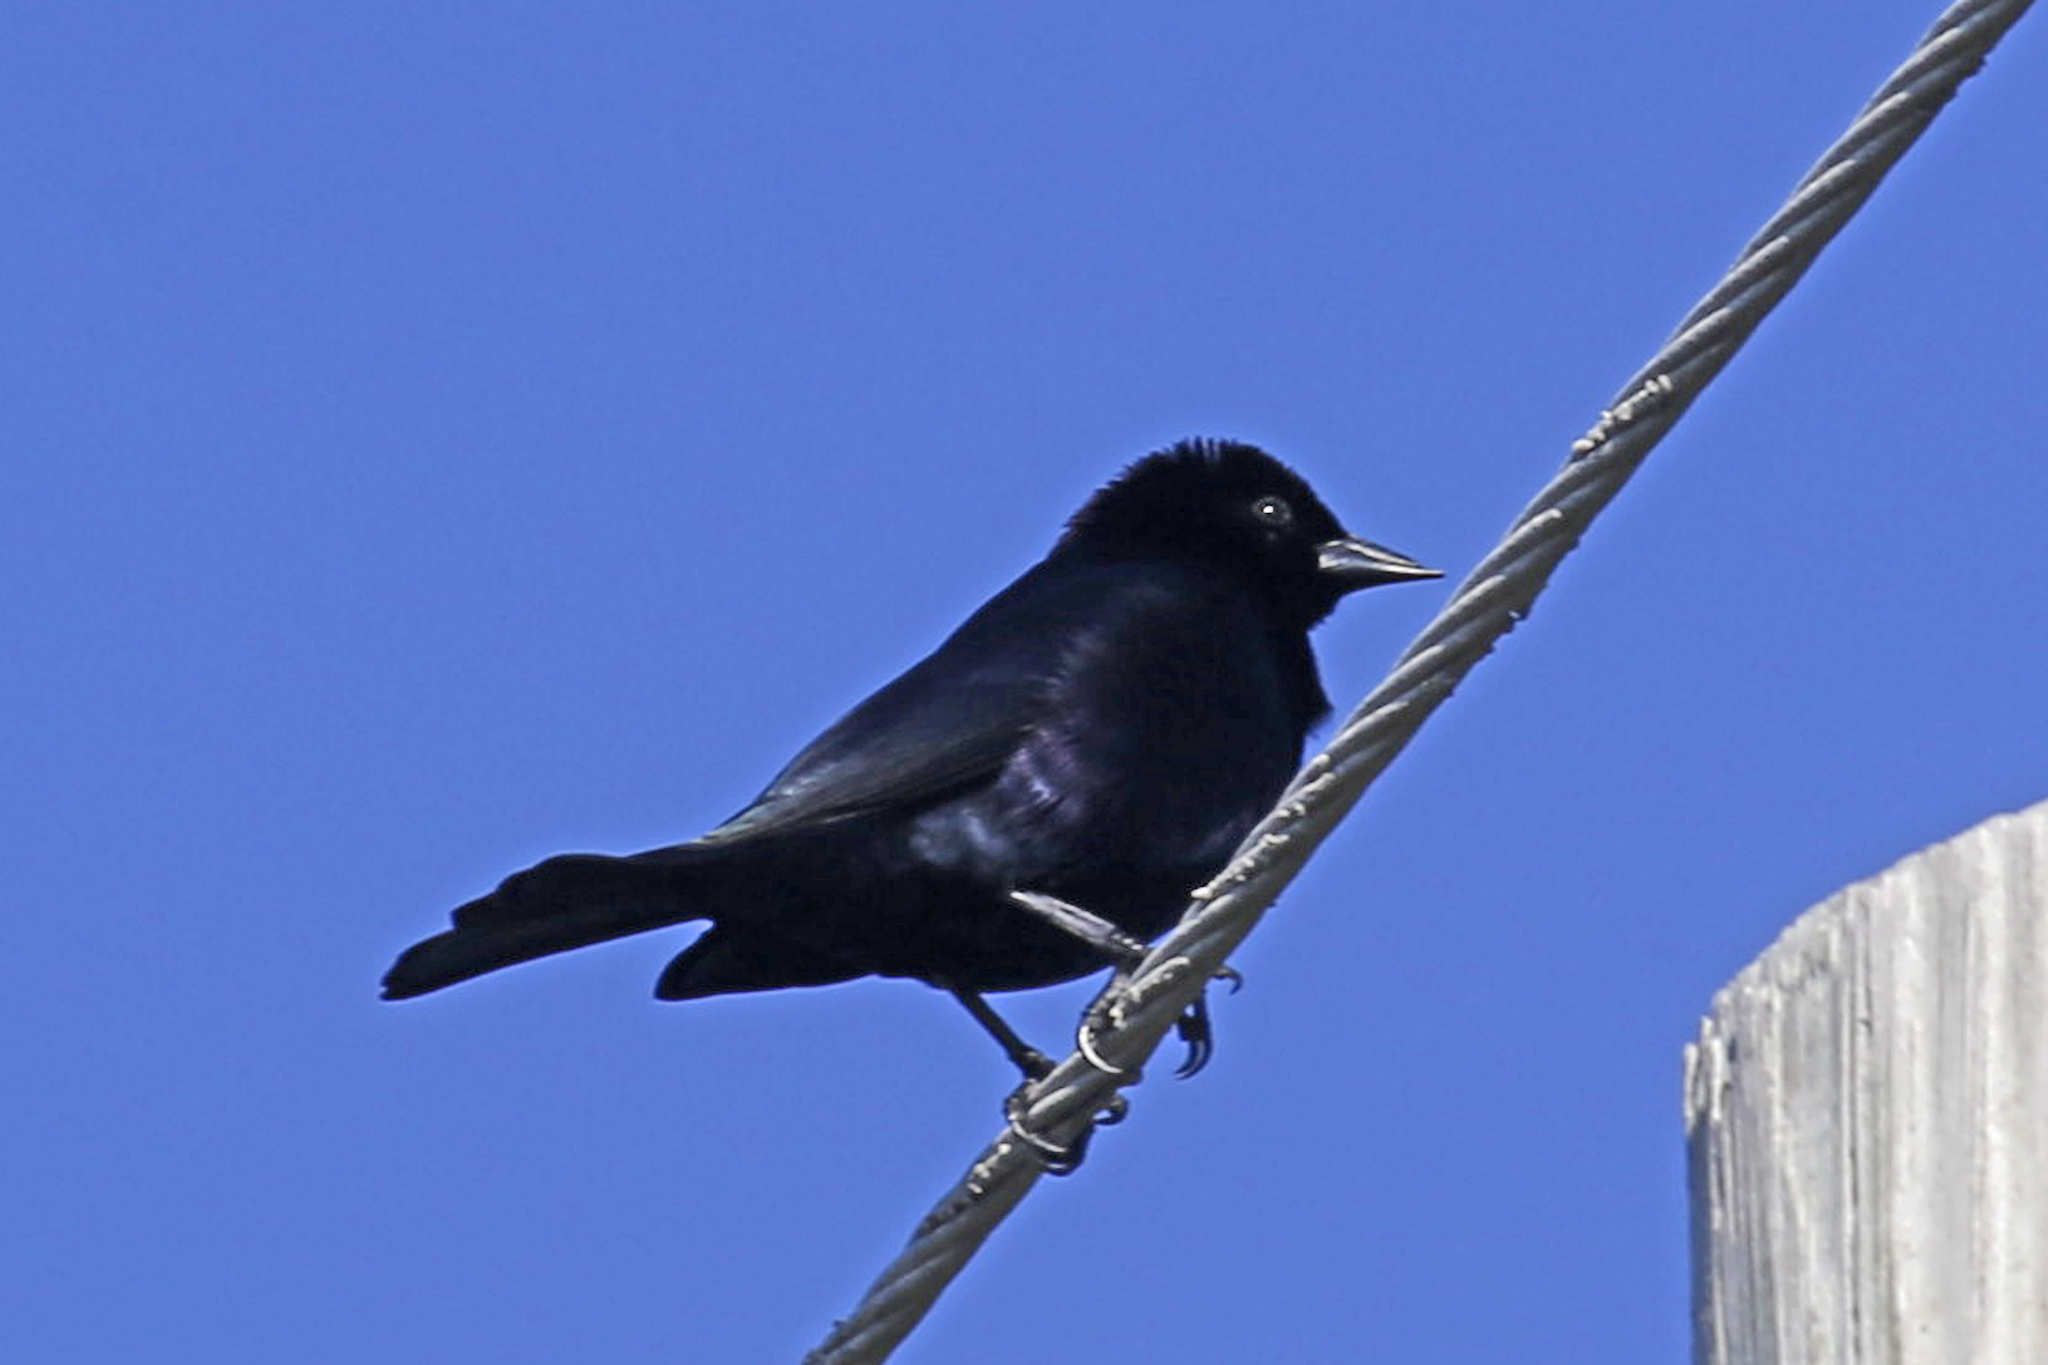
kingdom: Animalia
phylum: Chordata
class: Aves
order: Passeriformes
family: Icteridae
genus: Molothrus
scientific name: Molothrus bonariensis
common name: Shiny cowbird
